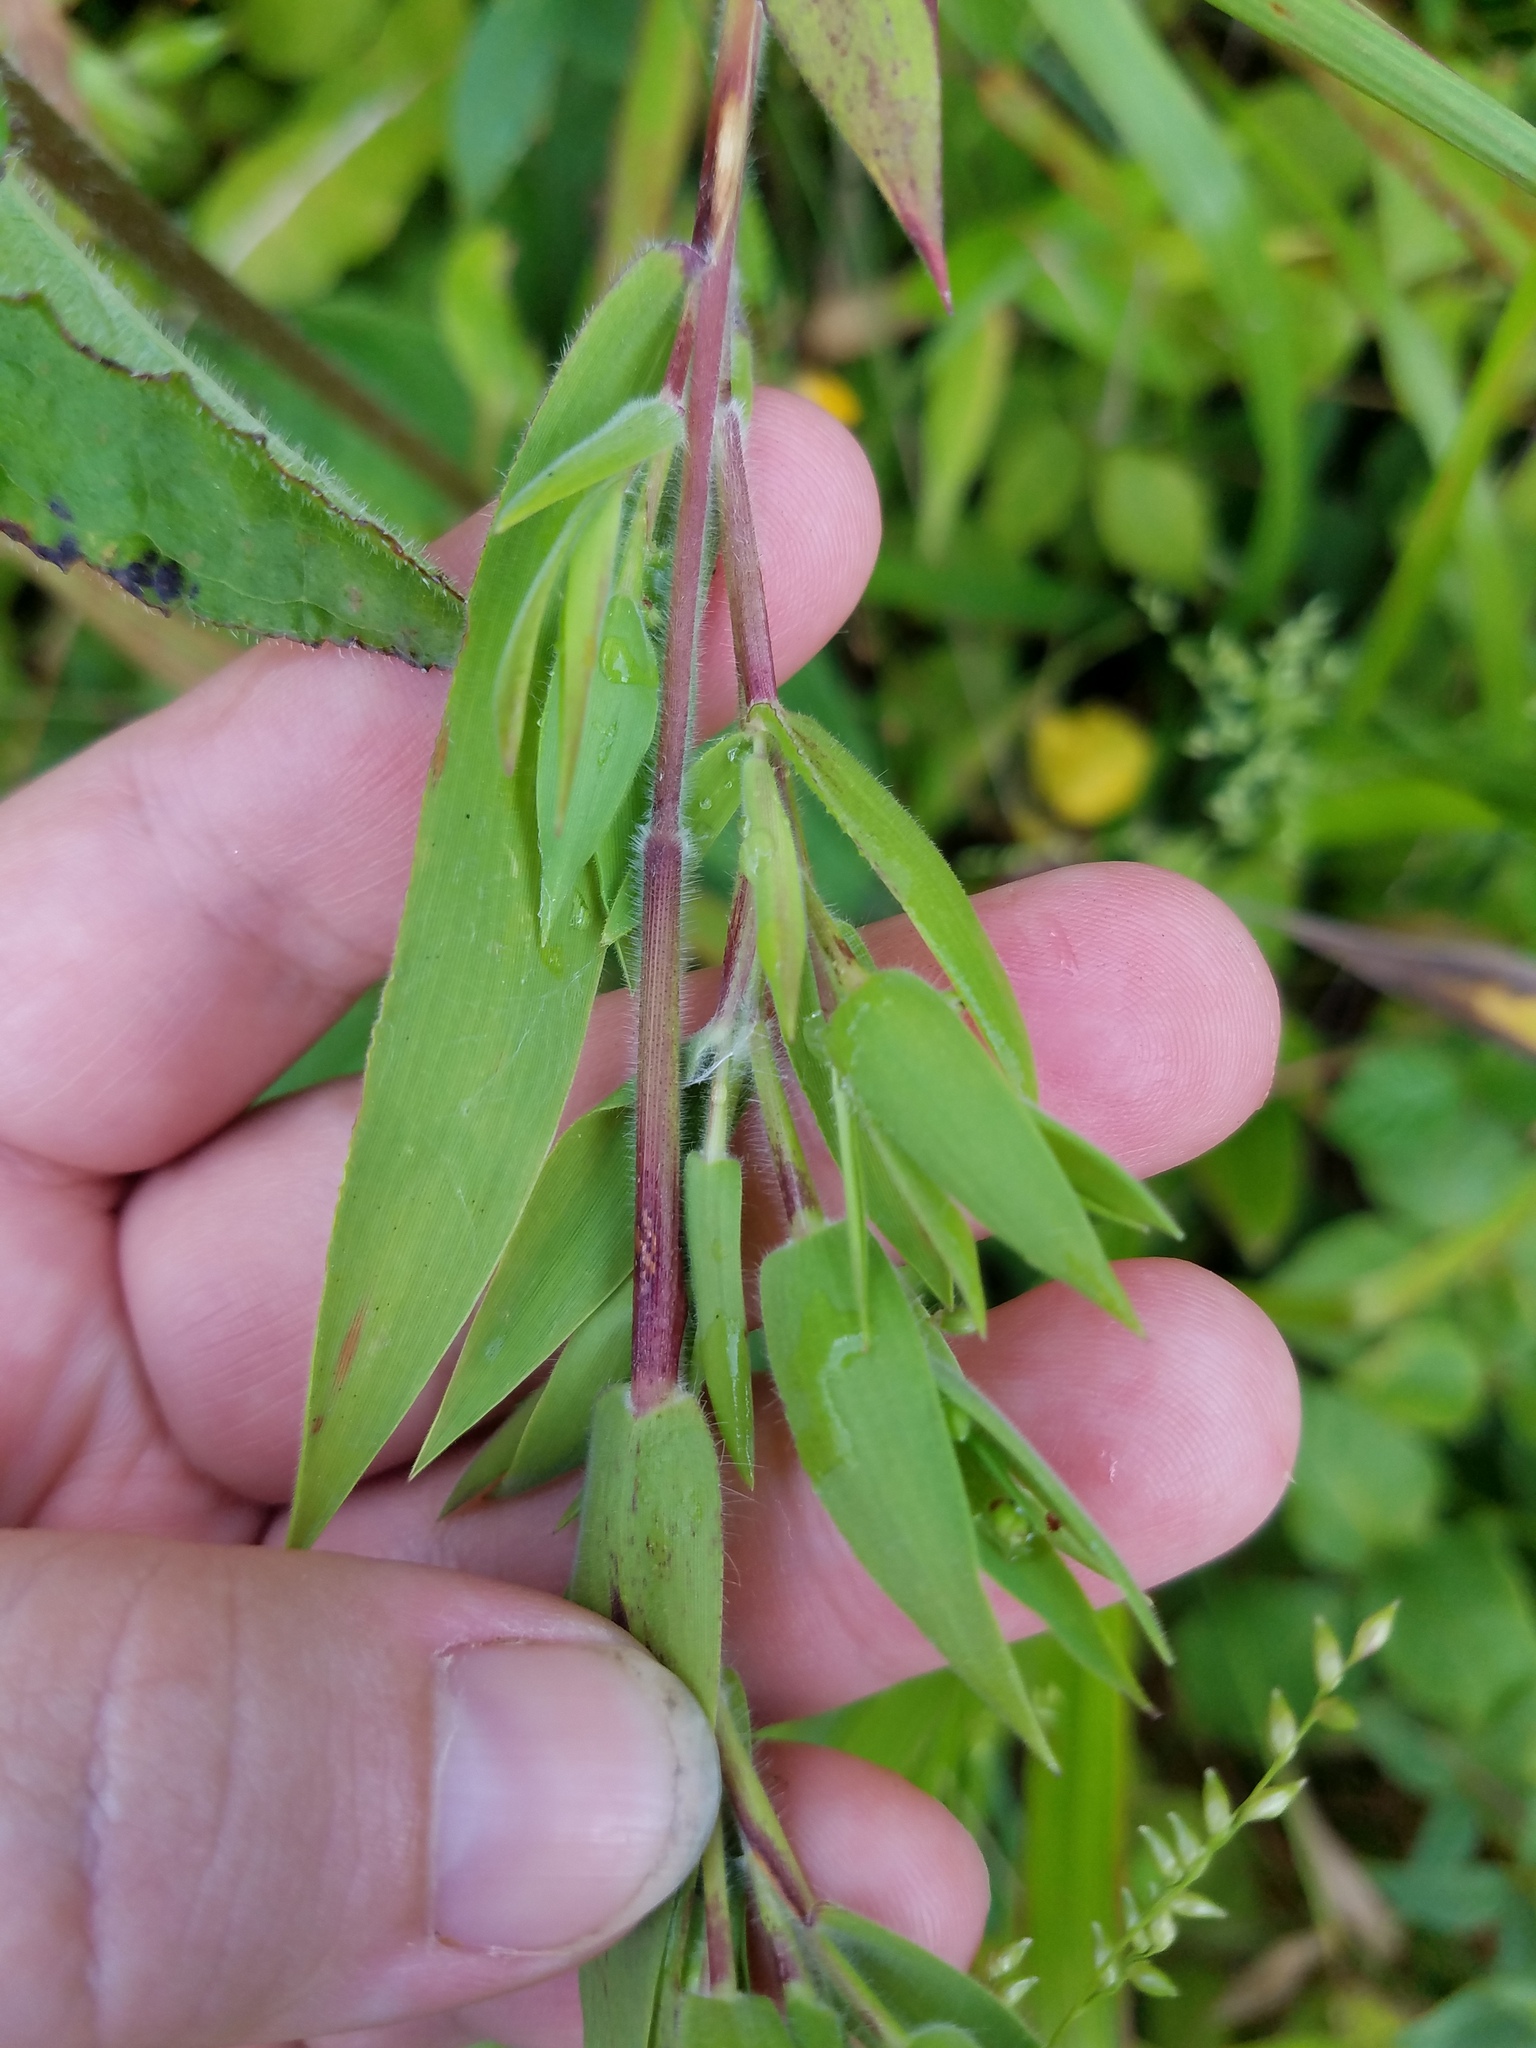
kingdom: Plantae
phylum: Tracheophyta
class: Liliopsida
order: Poales
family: Poaceae
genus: Dichanthelium
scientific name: Dichanthelium scoparium
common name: Velvety panic grass
